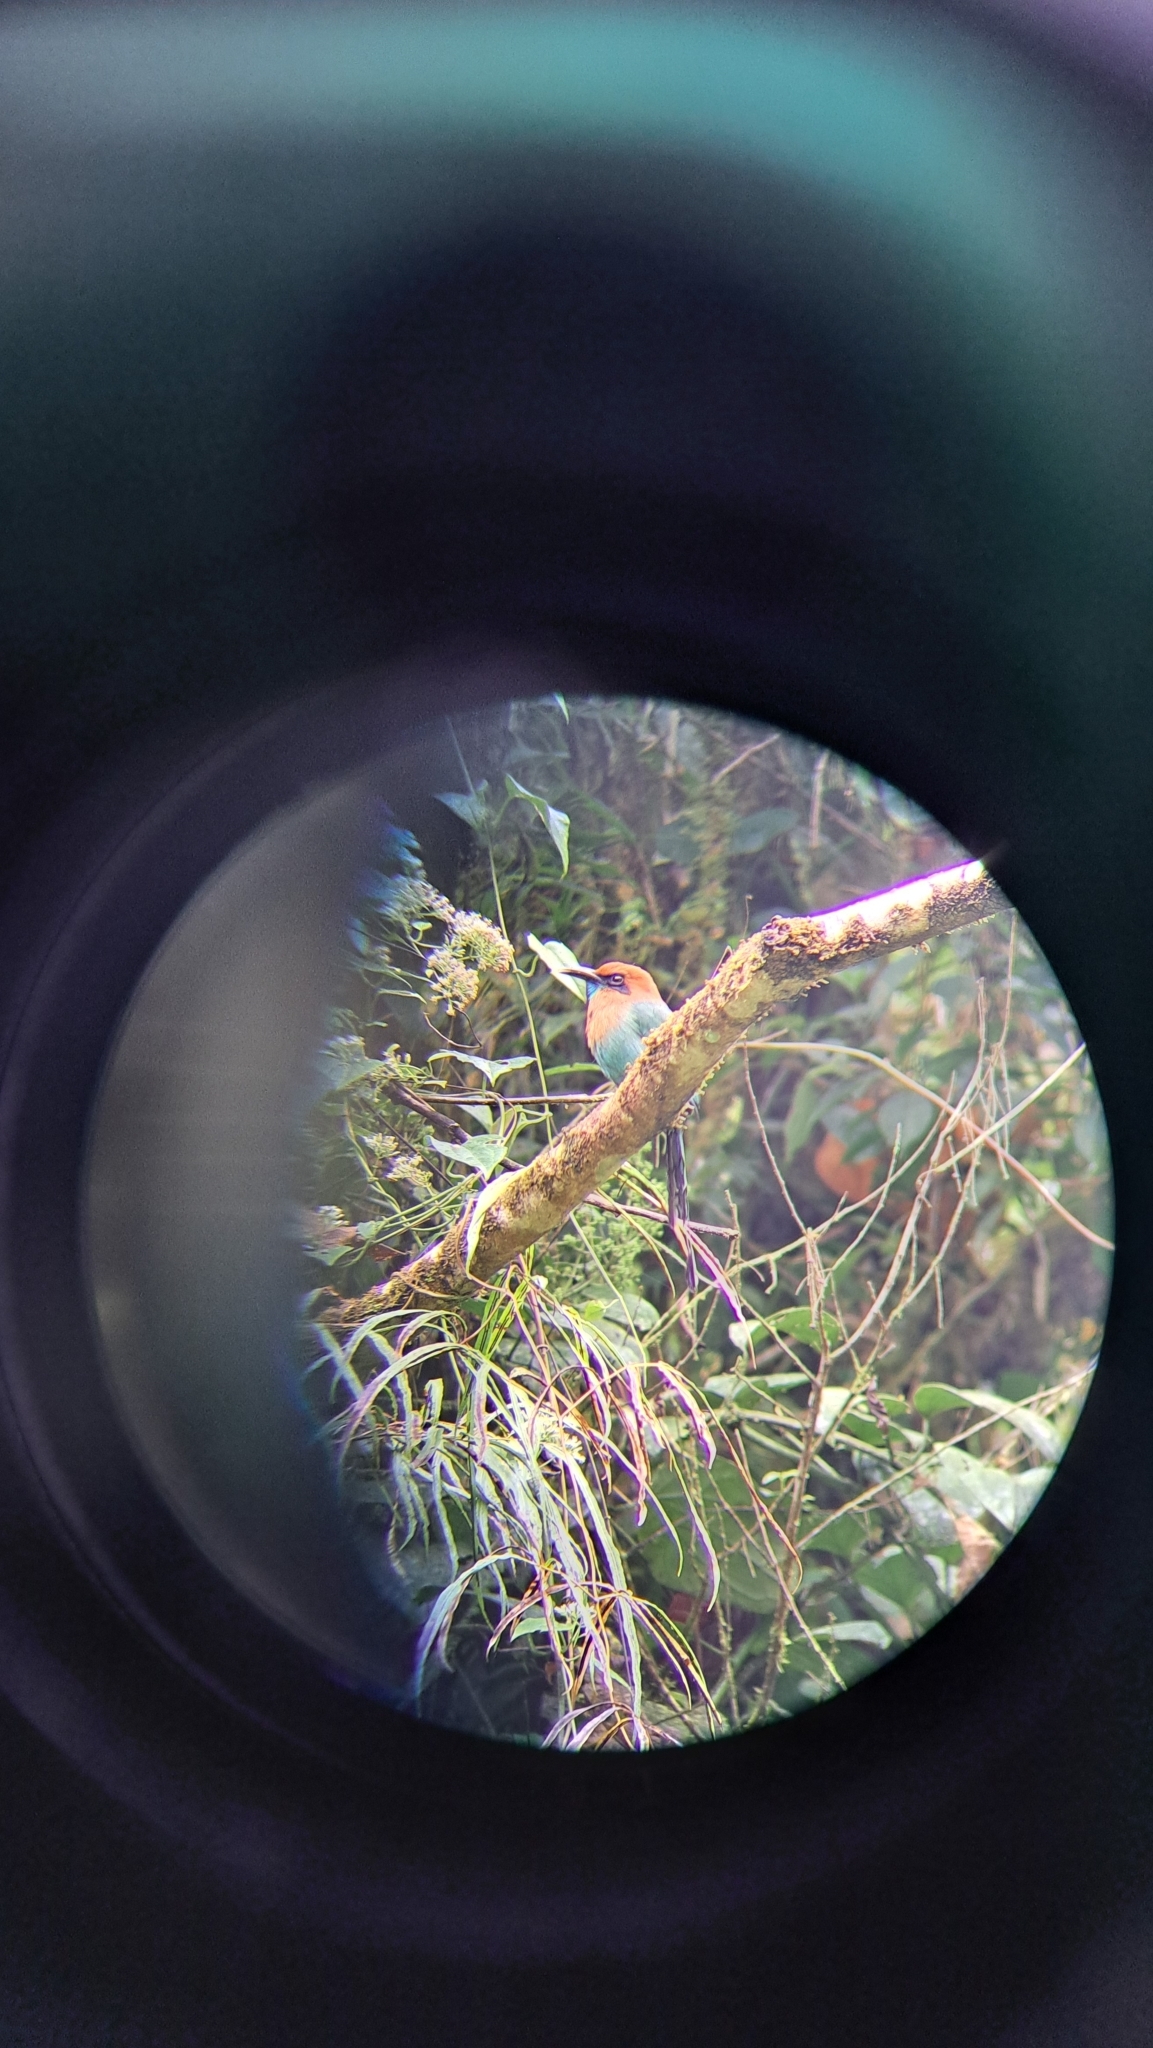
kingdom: Animalia
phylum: Chordata
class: Aves
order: Coraciiformes
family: Momotidae
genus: Electron
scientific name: Electron platyrhynchum
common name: Broad-billed motmot
